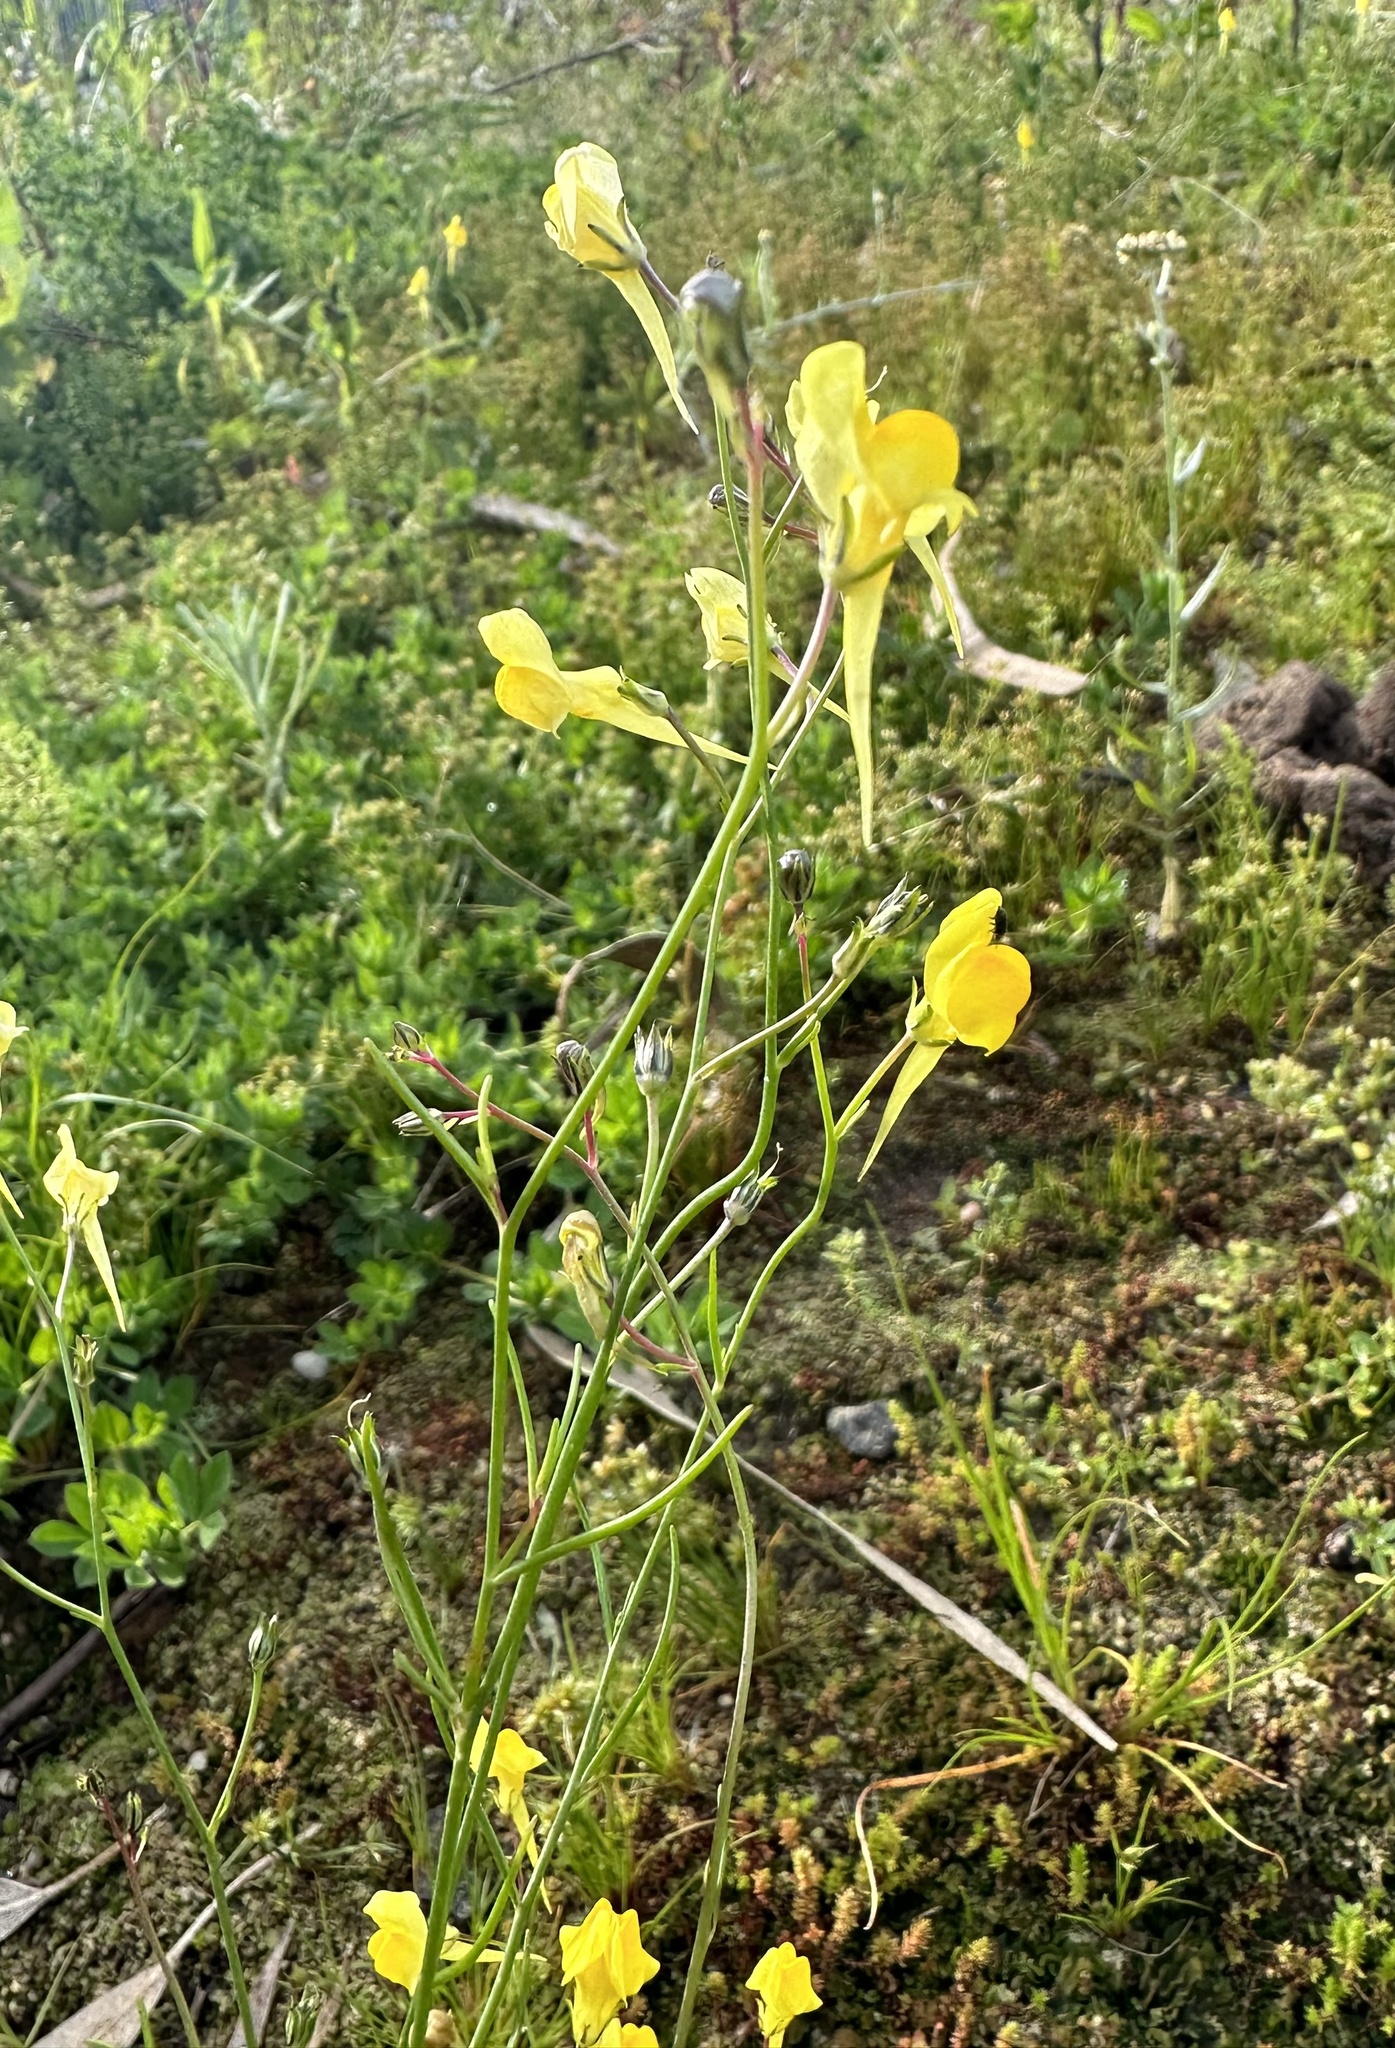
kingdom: Plantae
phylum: Tracheophyta
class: Magnoliopsida
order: Lamiales
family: Plantaginaceae
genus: Linaria
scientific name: Linaria spartea
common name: Ballast toadflax
